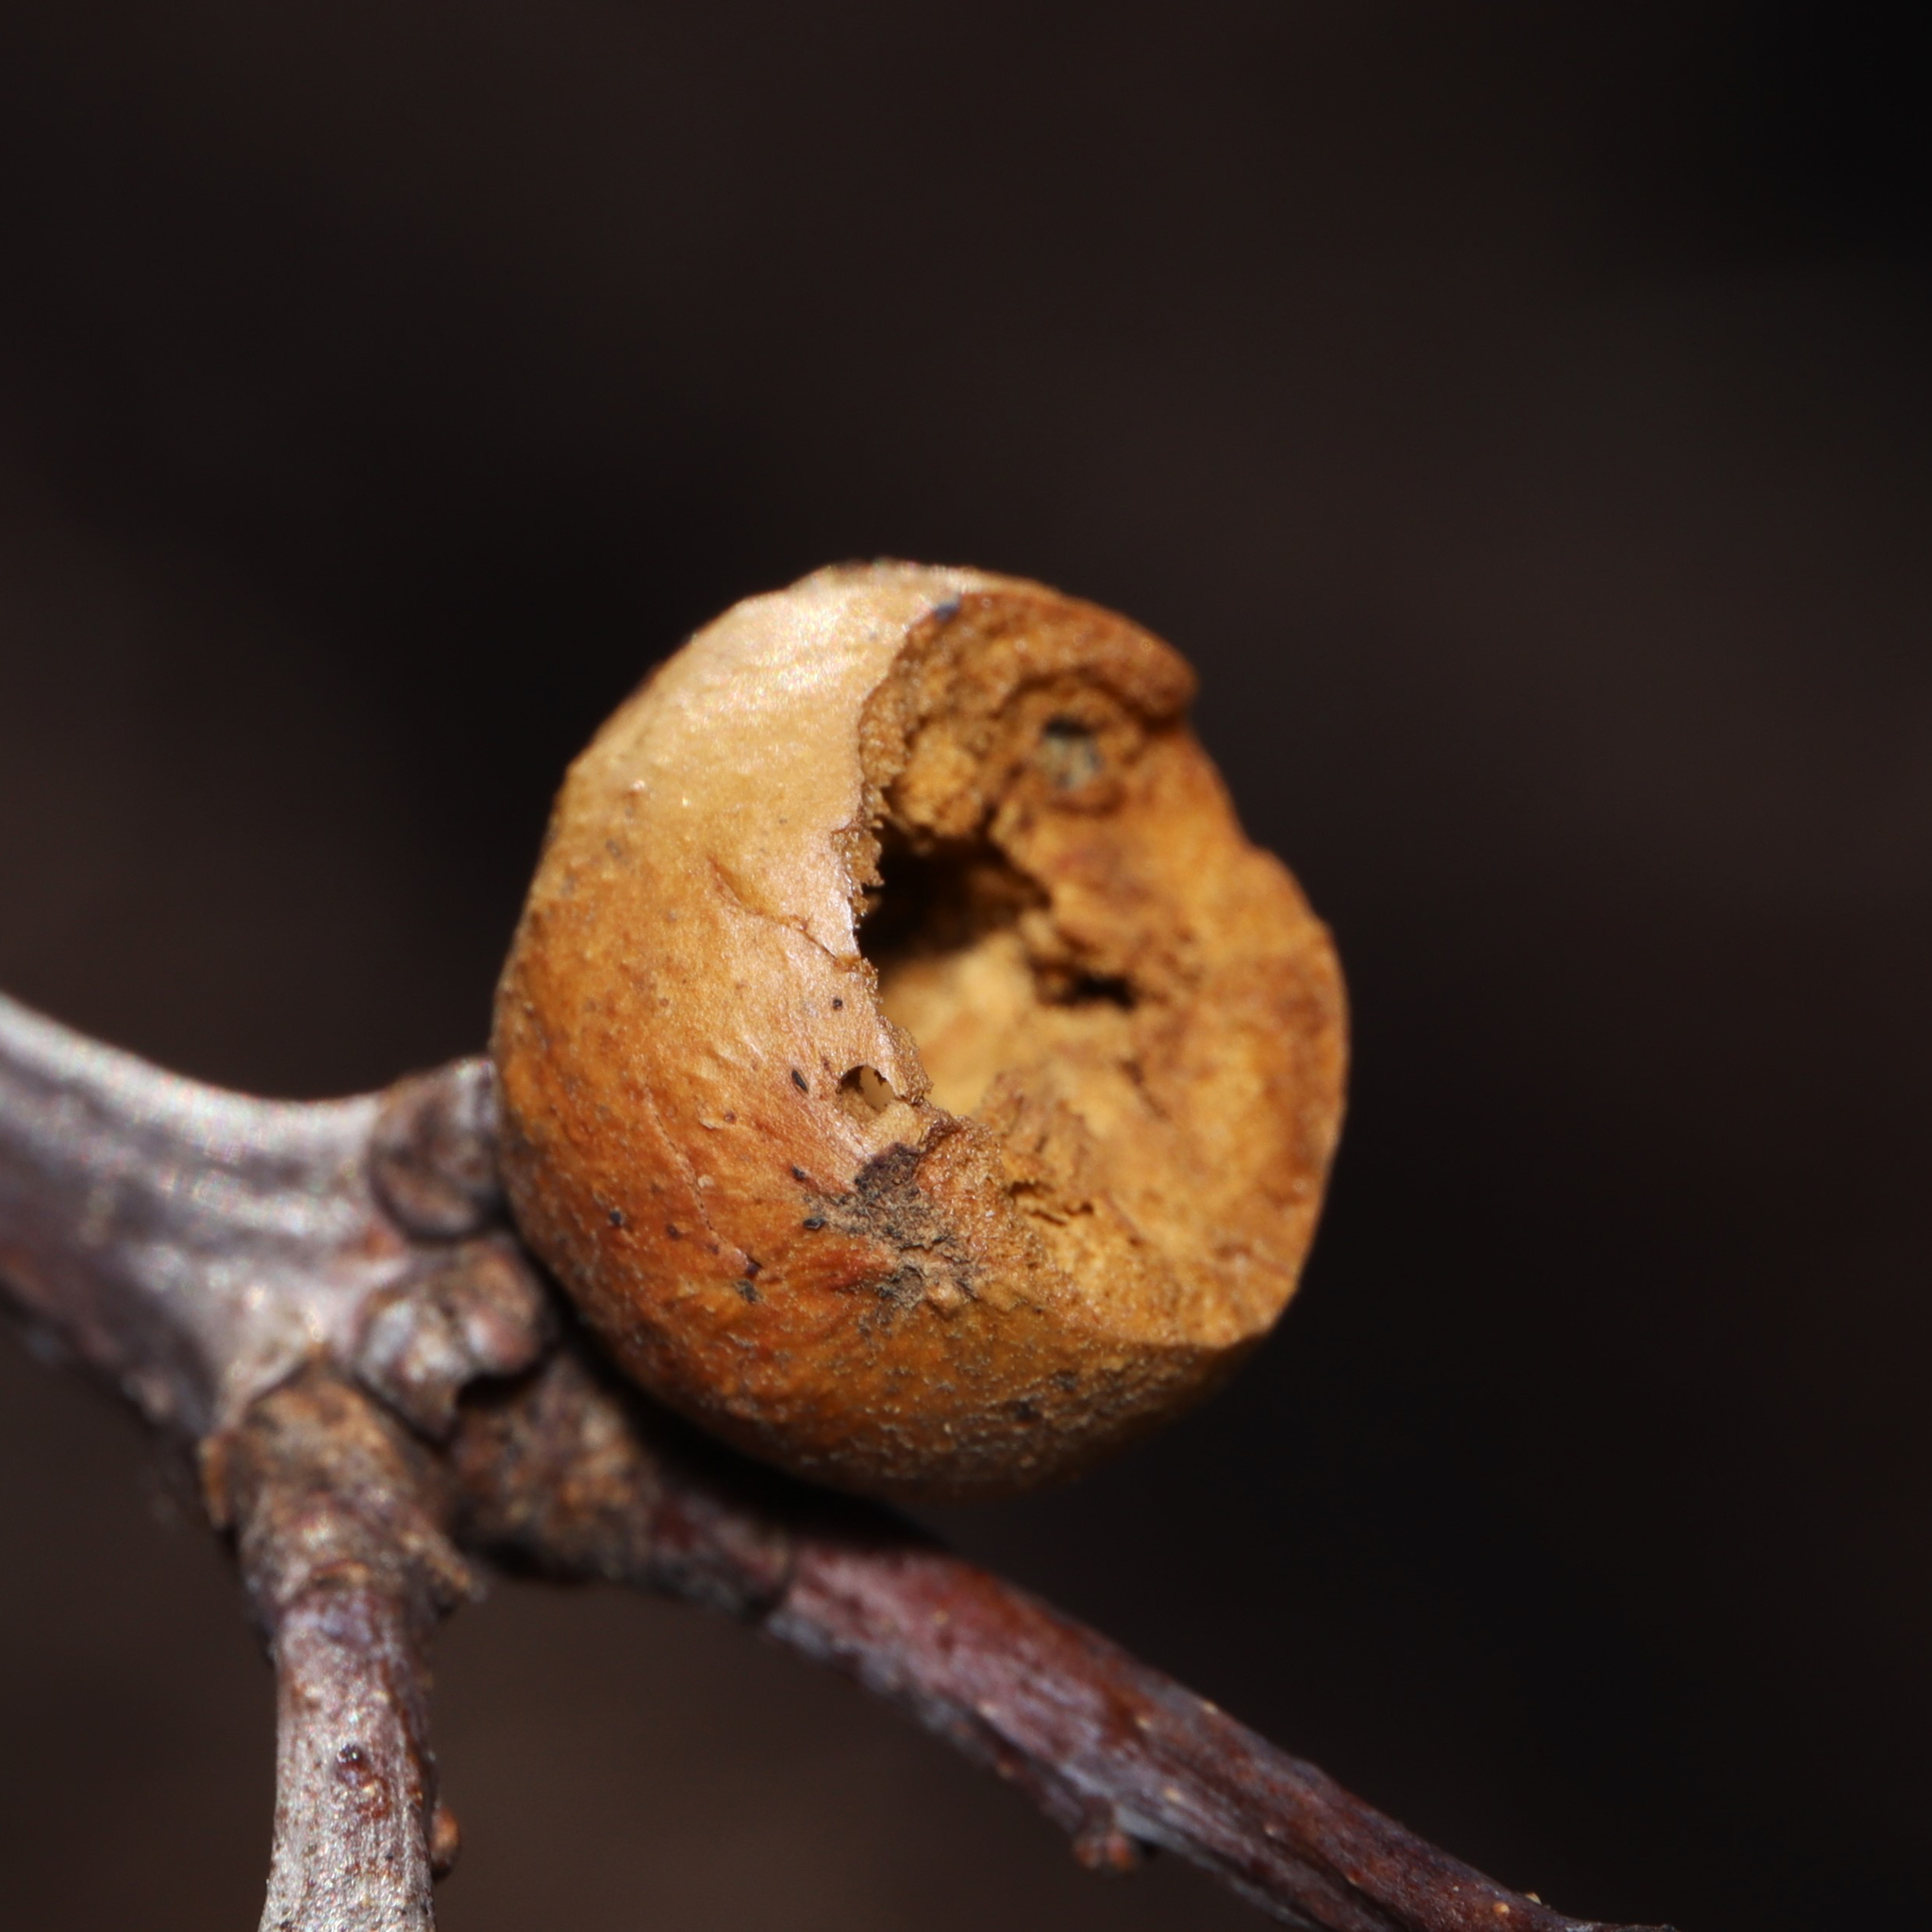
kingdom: Animalia
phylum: Arthropoda
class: Insecta
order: Hymenoptera
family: Cynipidae
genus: Disholcaspis
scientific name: Disholcaspis quercusglobulus
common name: Round bullet gall wasp
